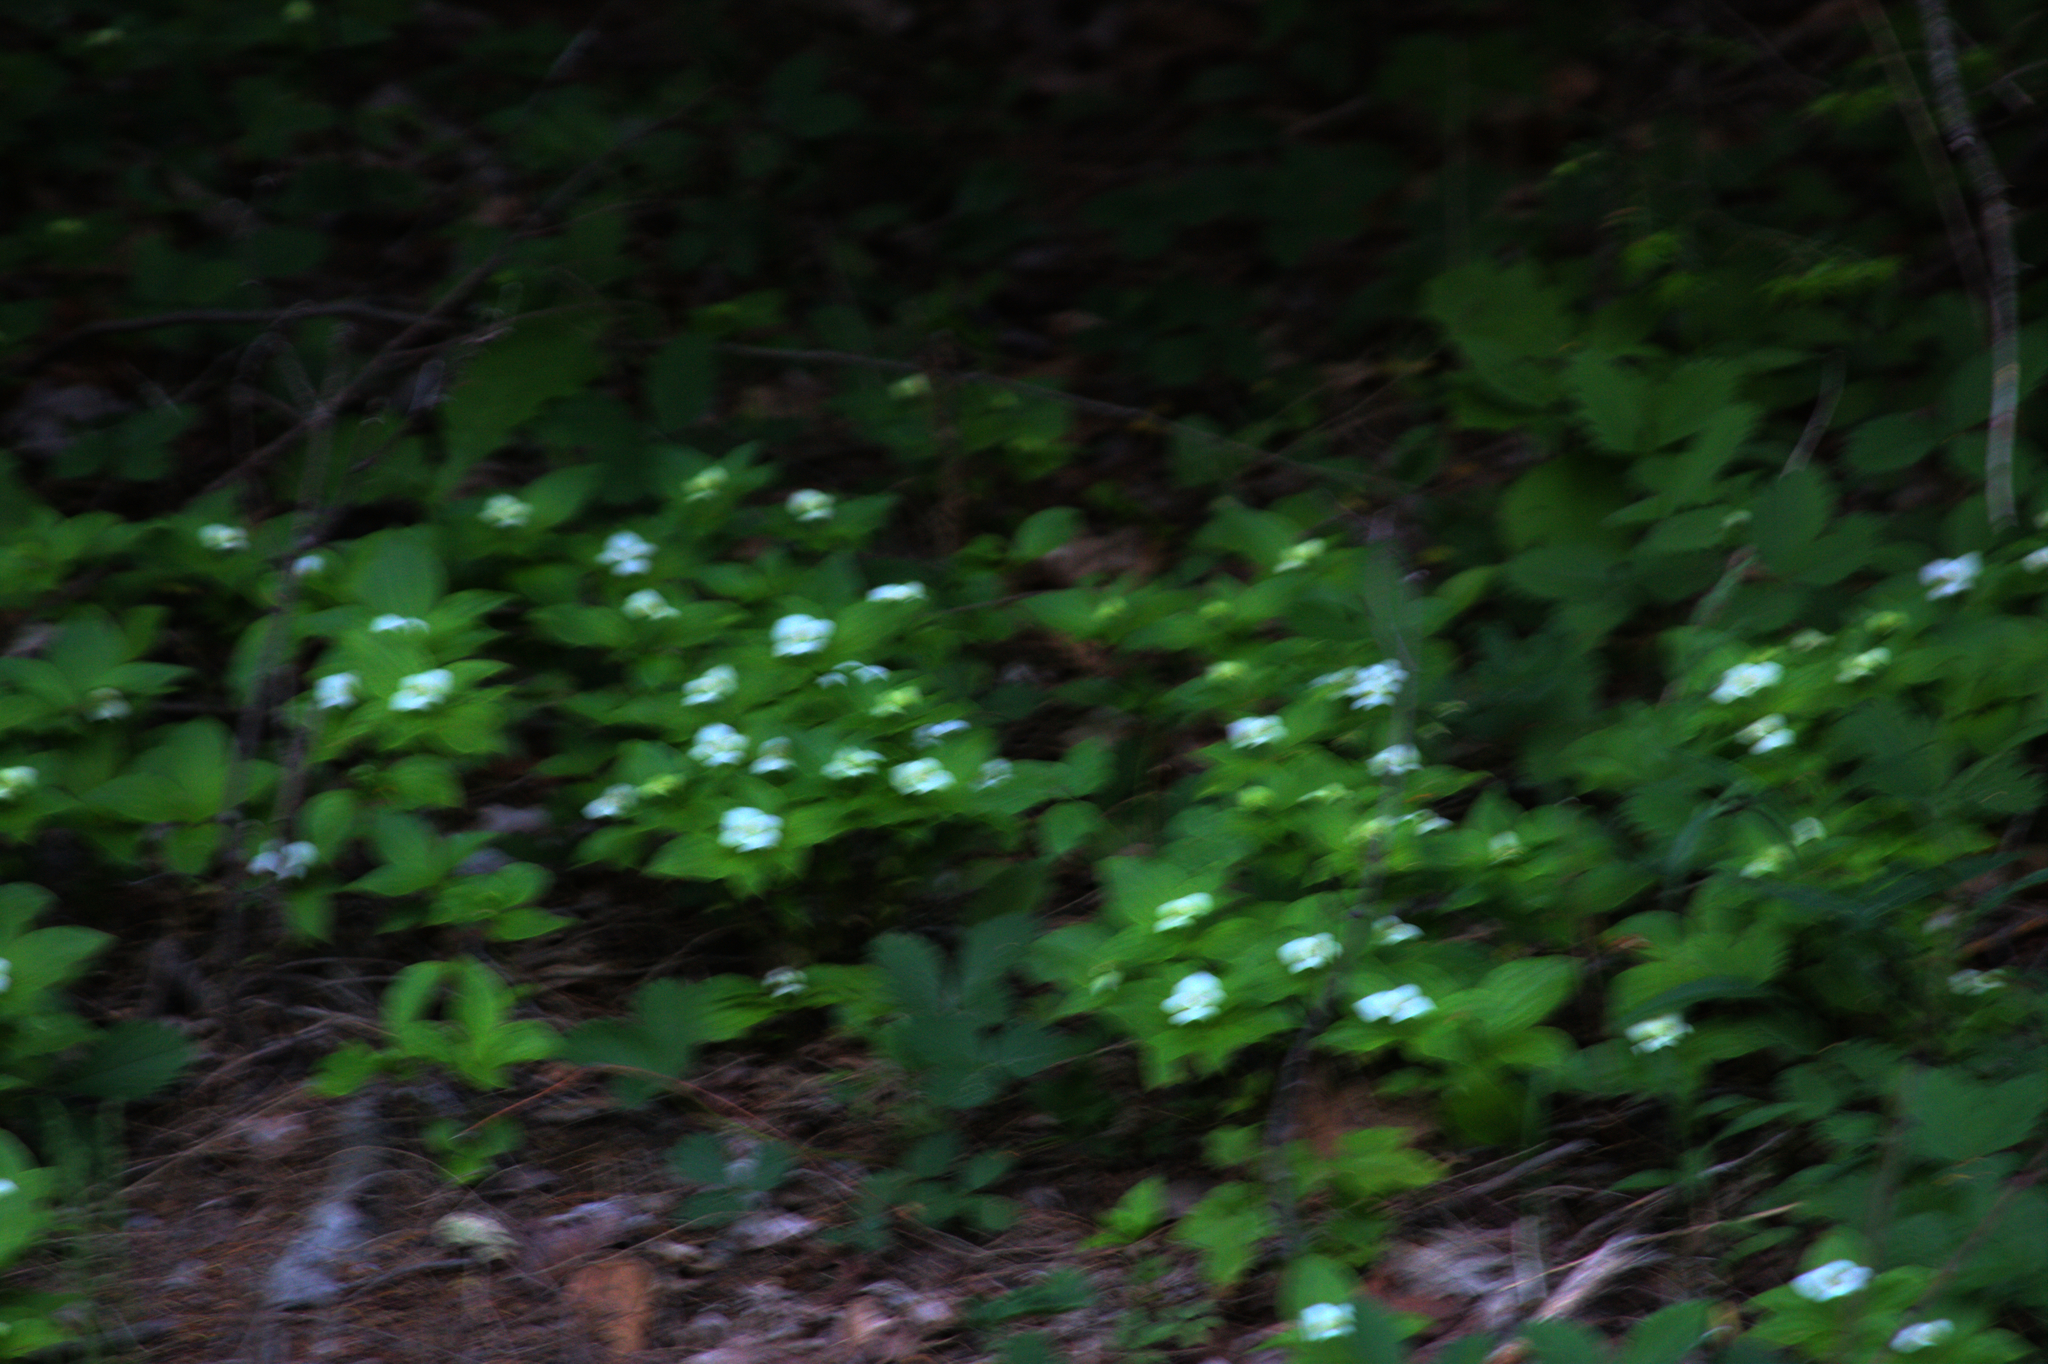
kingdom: Plantae
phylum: Tracheophyta
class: Magnoliopsida
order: Cornales
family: Cornaceae
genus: Cornus
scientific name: Cornus canadensis
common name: Creeping dogwood
